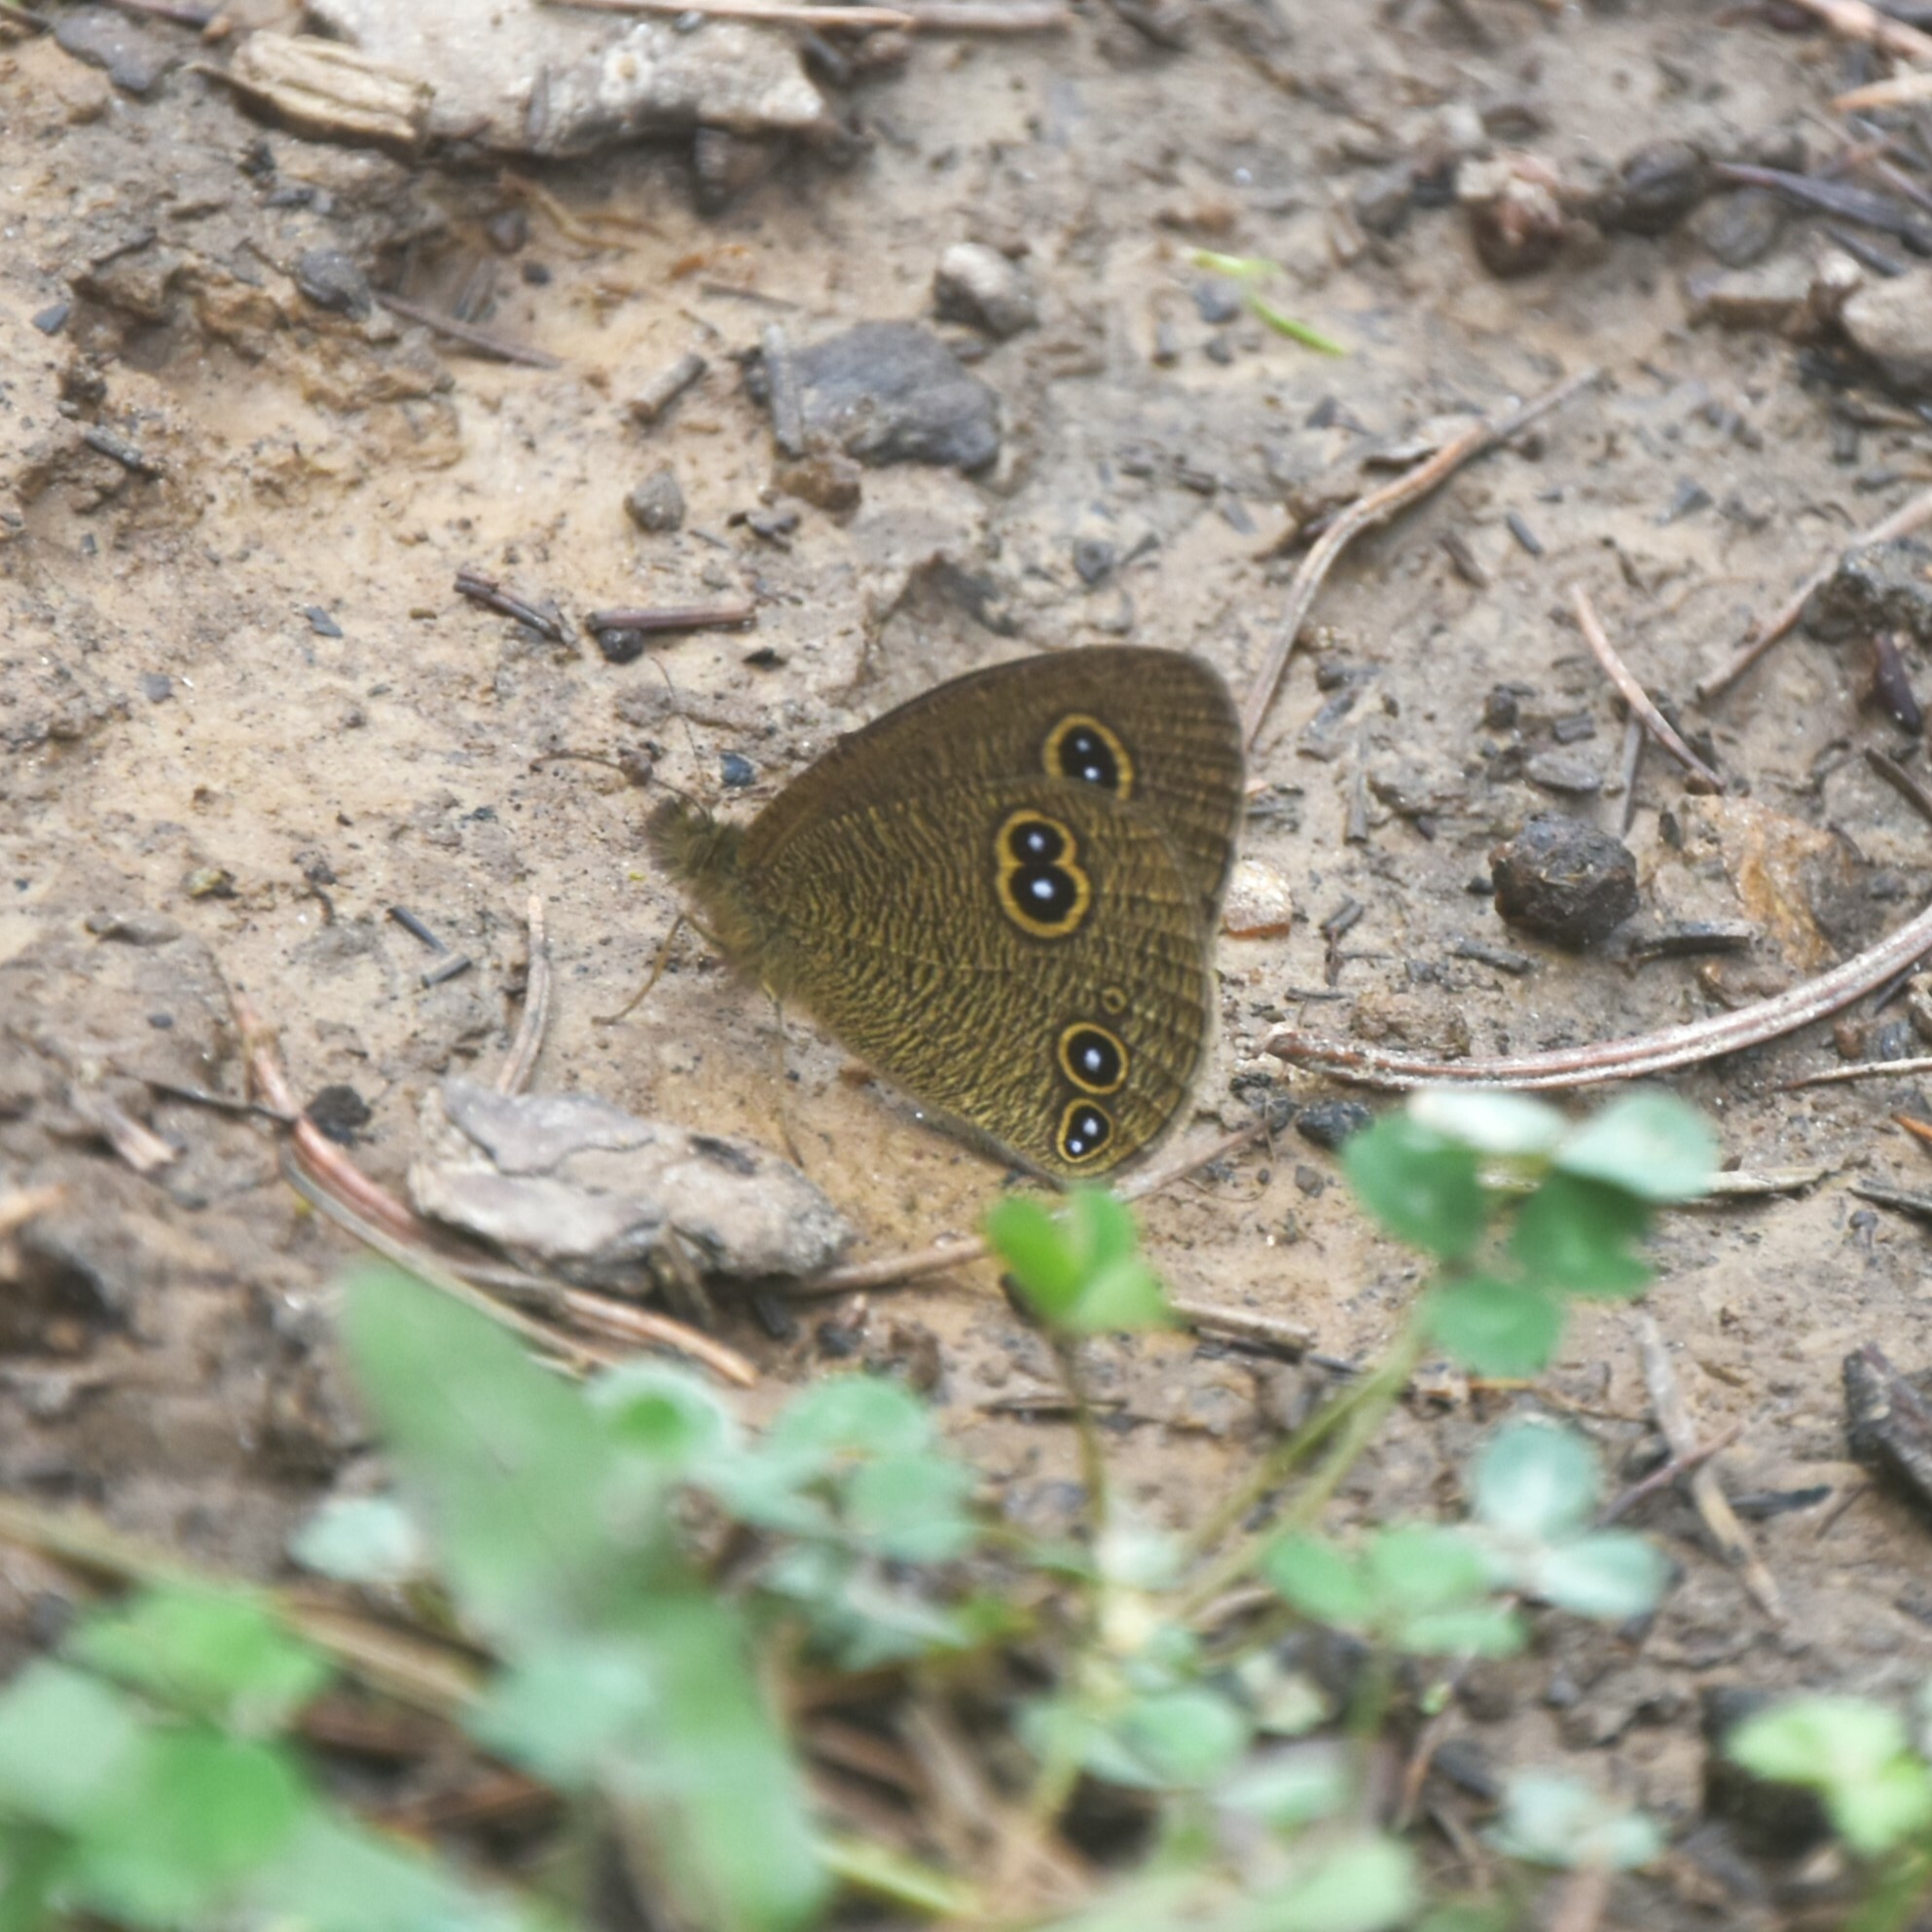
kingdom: Animalia
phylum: Arthropoda
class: Insecta
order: Lepidoptera
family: Nymphalidae
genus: Ypthima
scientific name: Ypthima nikaea
